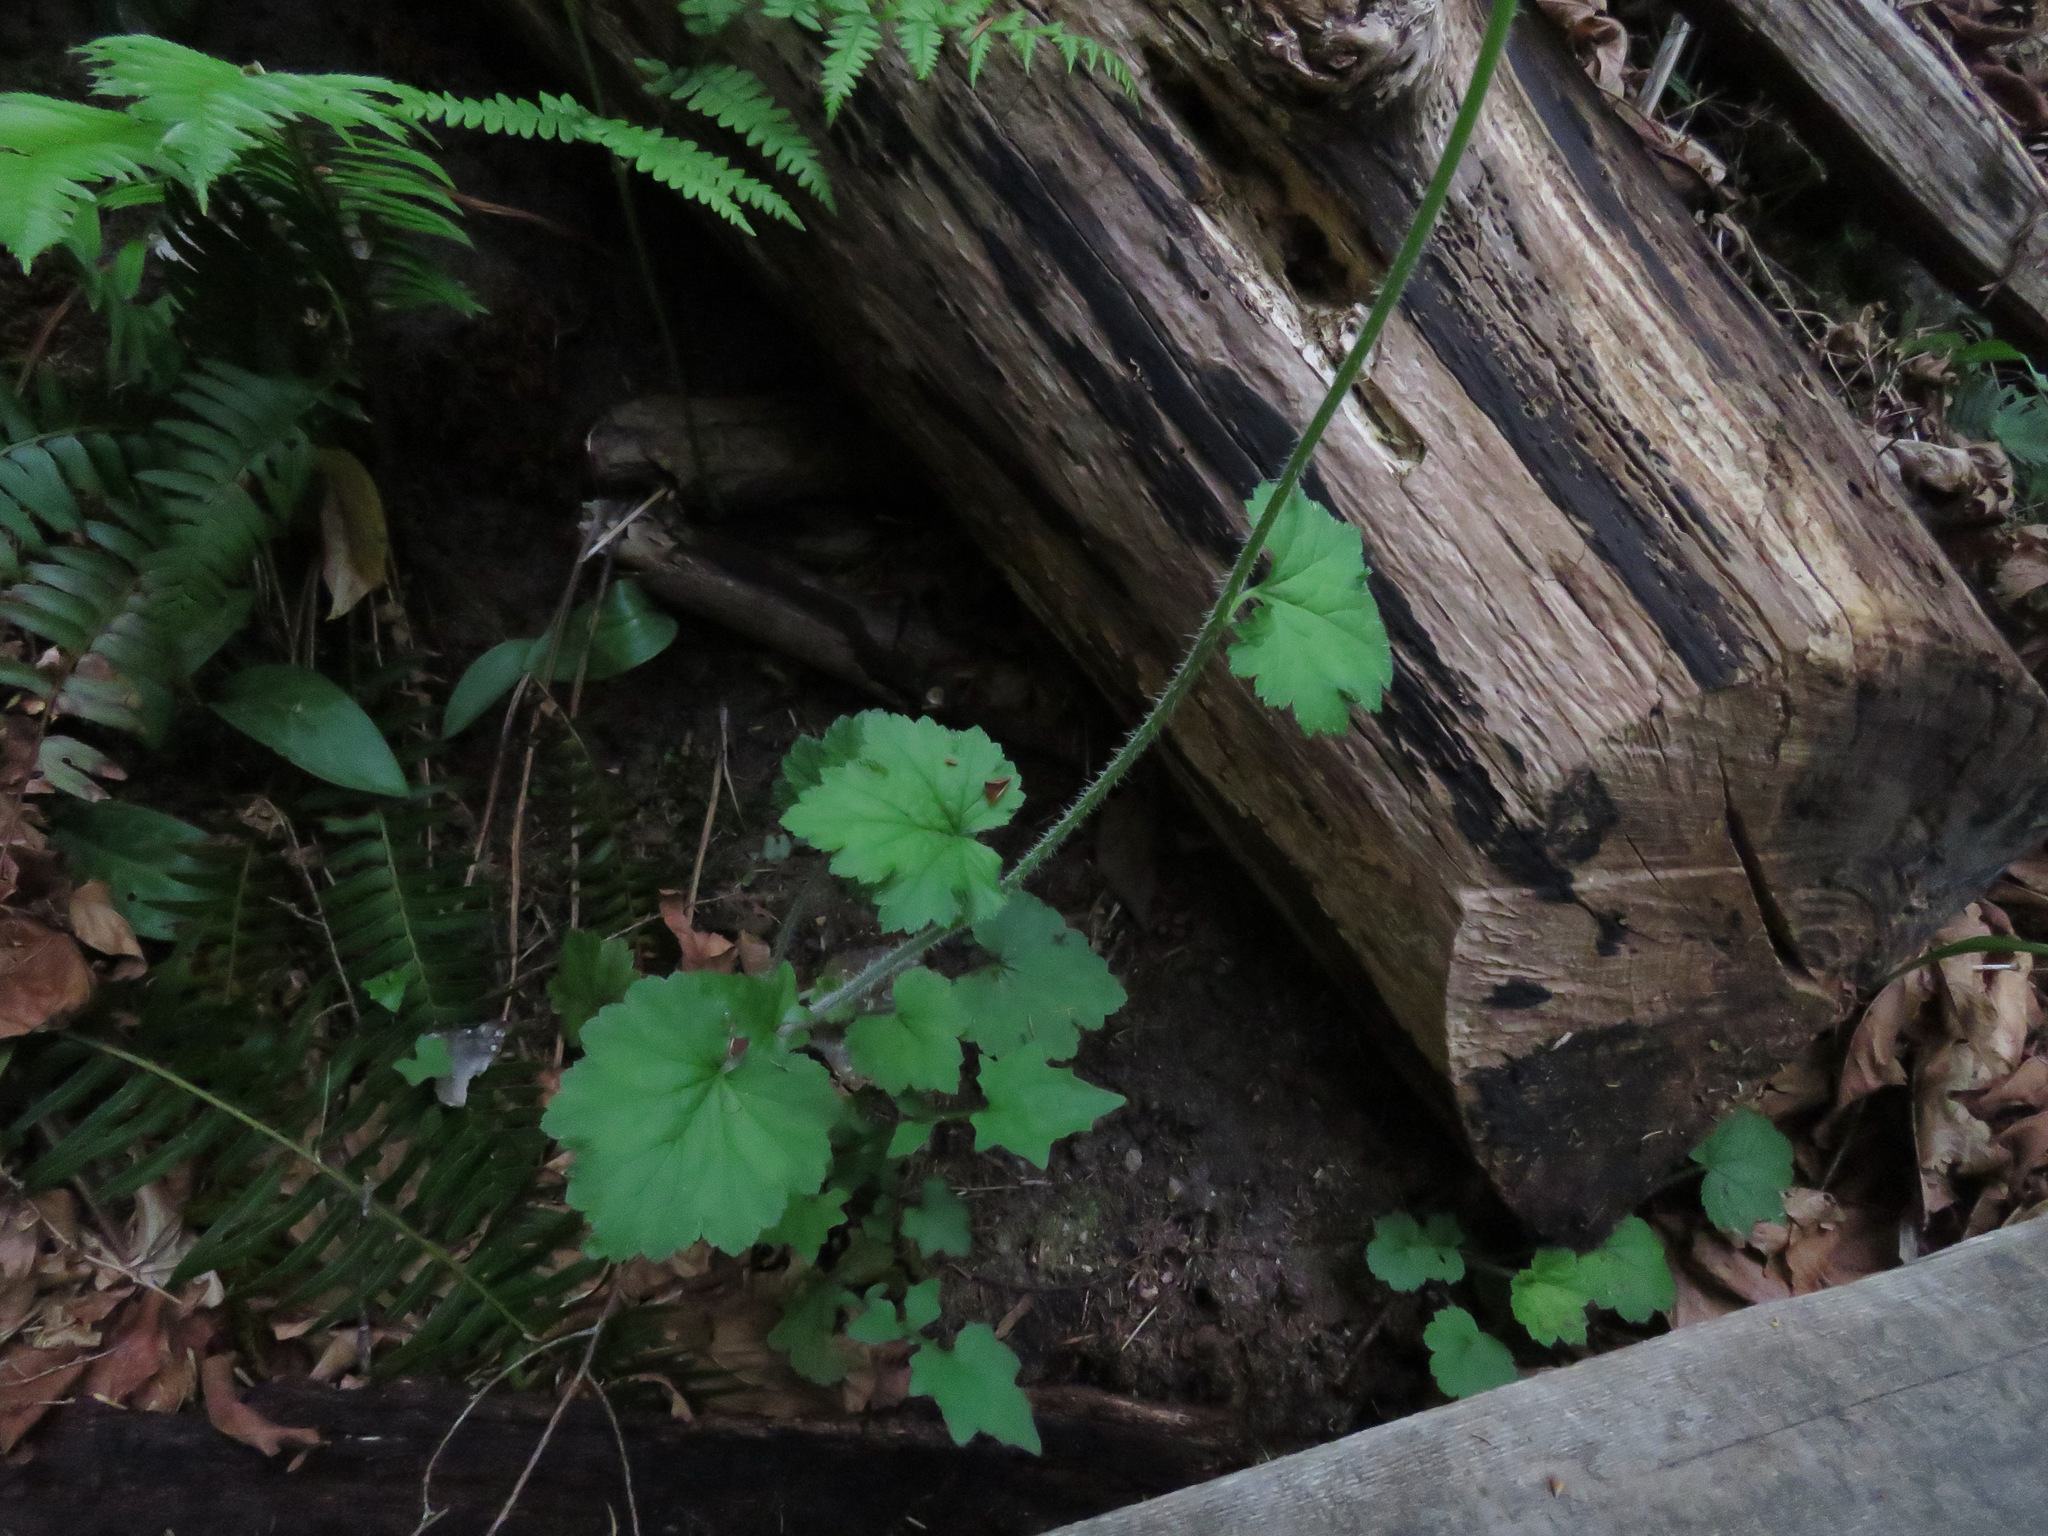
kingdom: Plantae
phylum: Tracheophyta
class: Magnoliopsida
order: Saxifragales
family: Saxifragaceae
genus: Tellima
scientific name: Tellima grandiflora
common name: Fringecups
